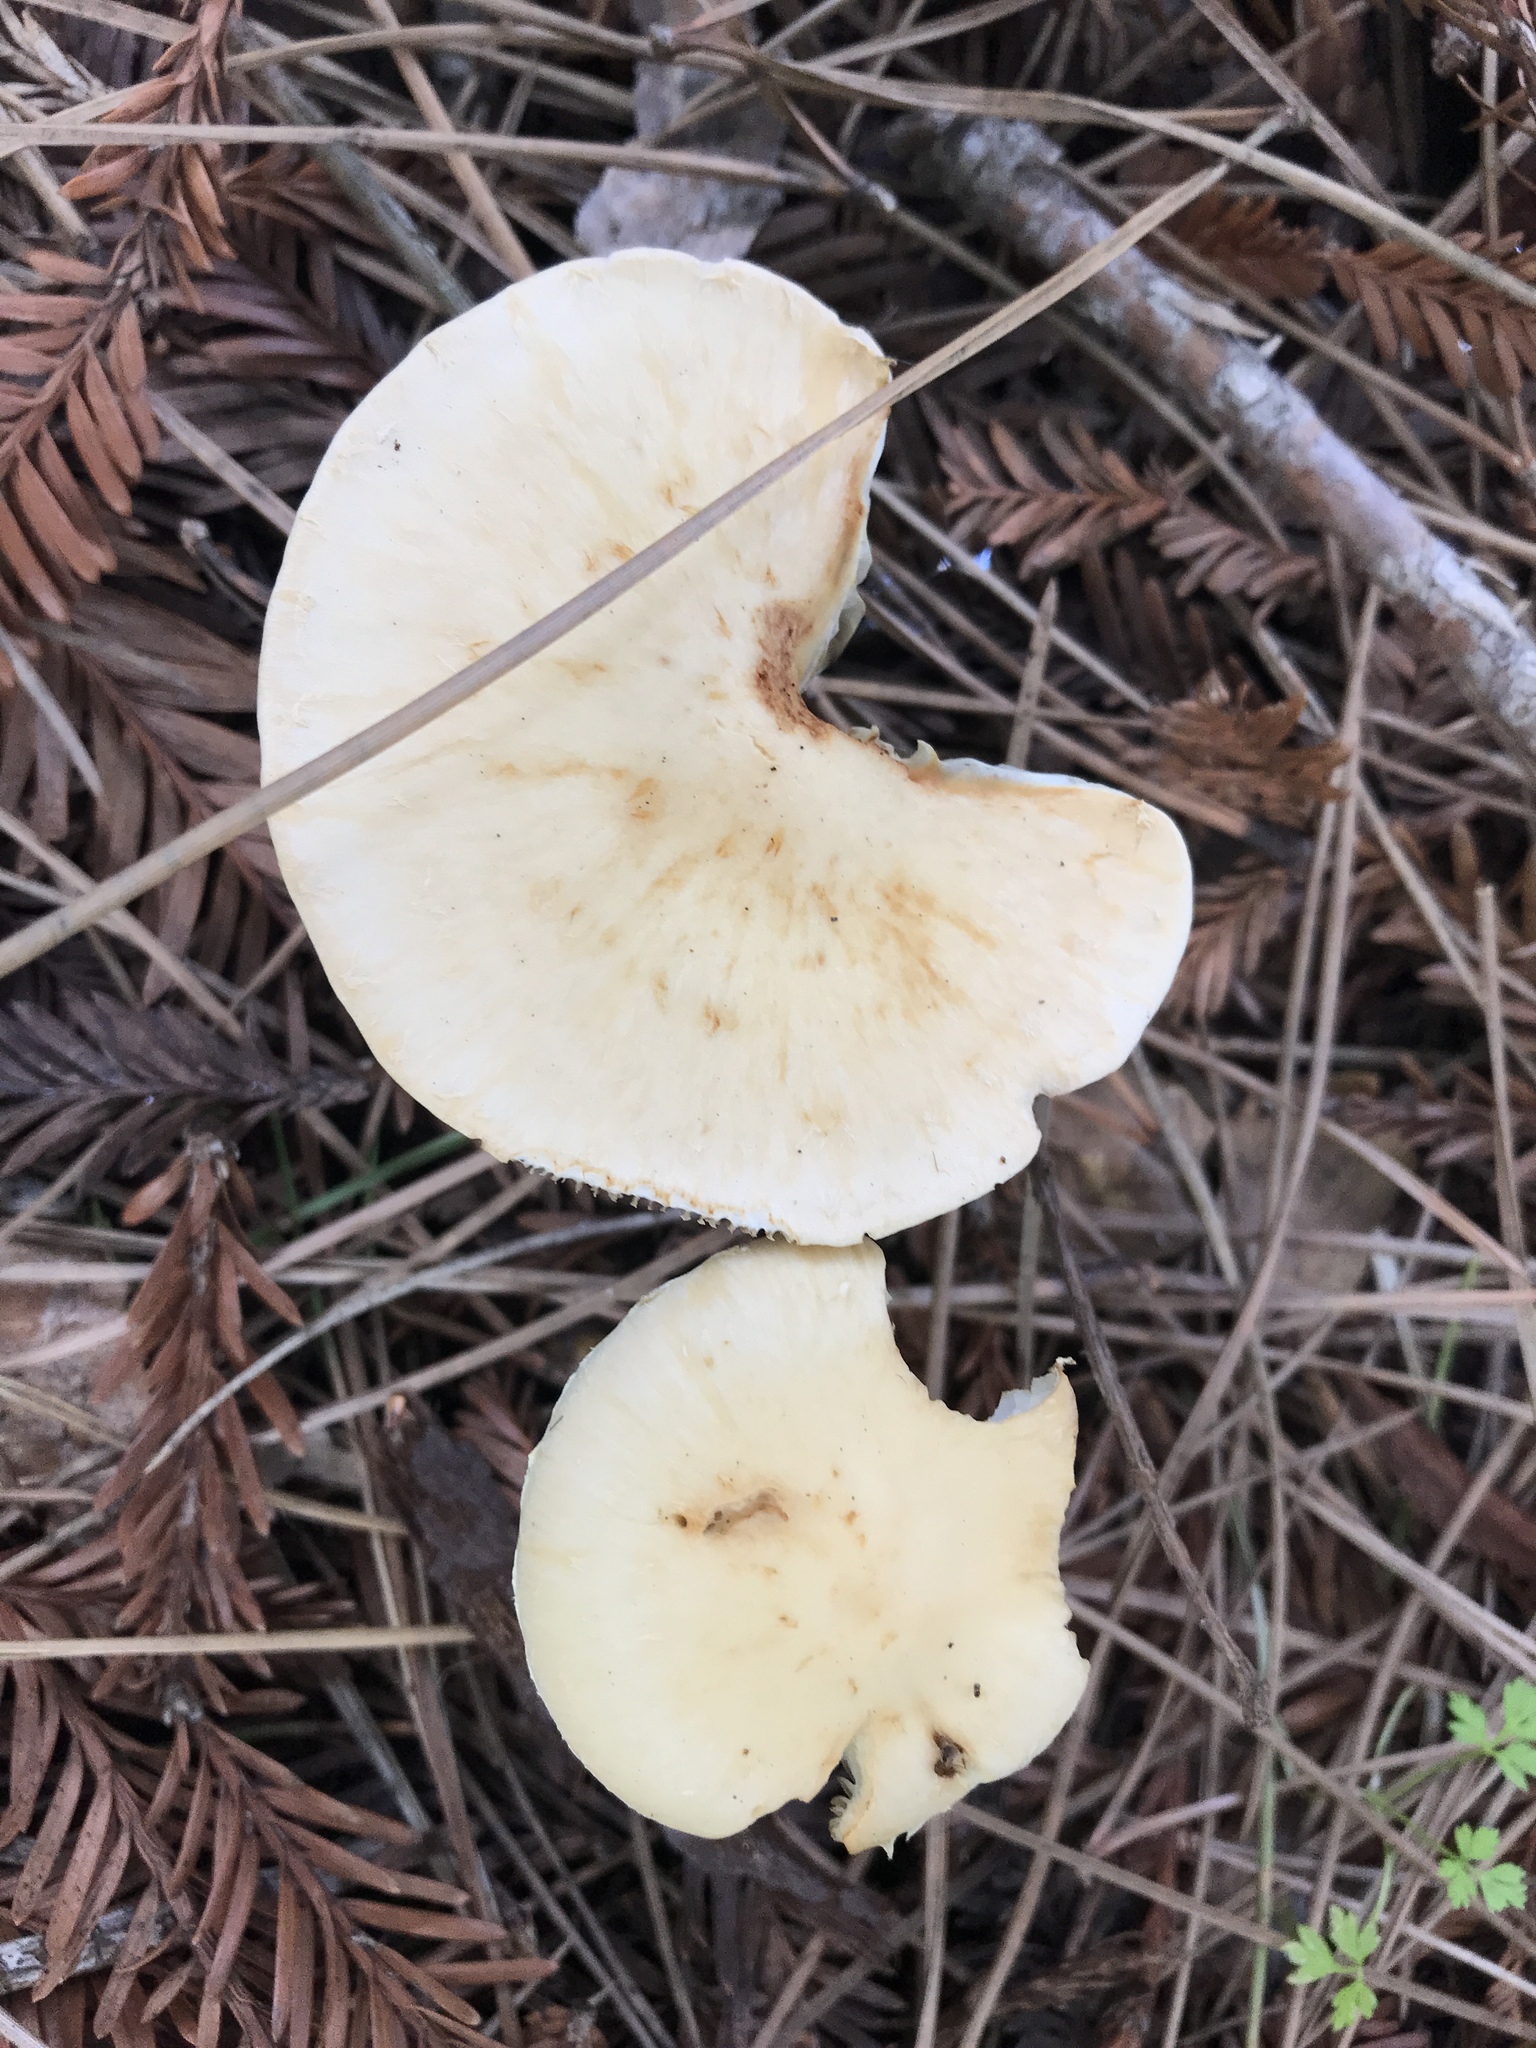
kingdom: Fungi
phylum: Basidiomycota
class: Agaricomycetes
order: Agaricales
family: Strophariaceae
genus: Leratiomyces
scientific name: Leratiomyces percevalii
